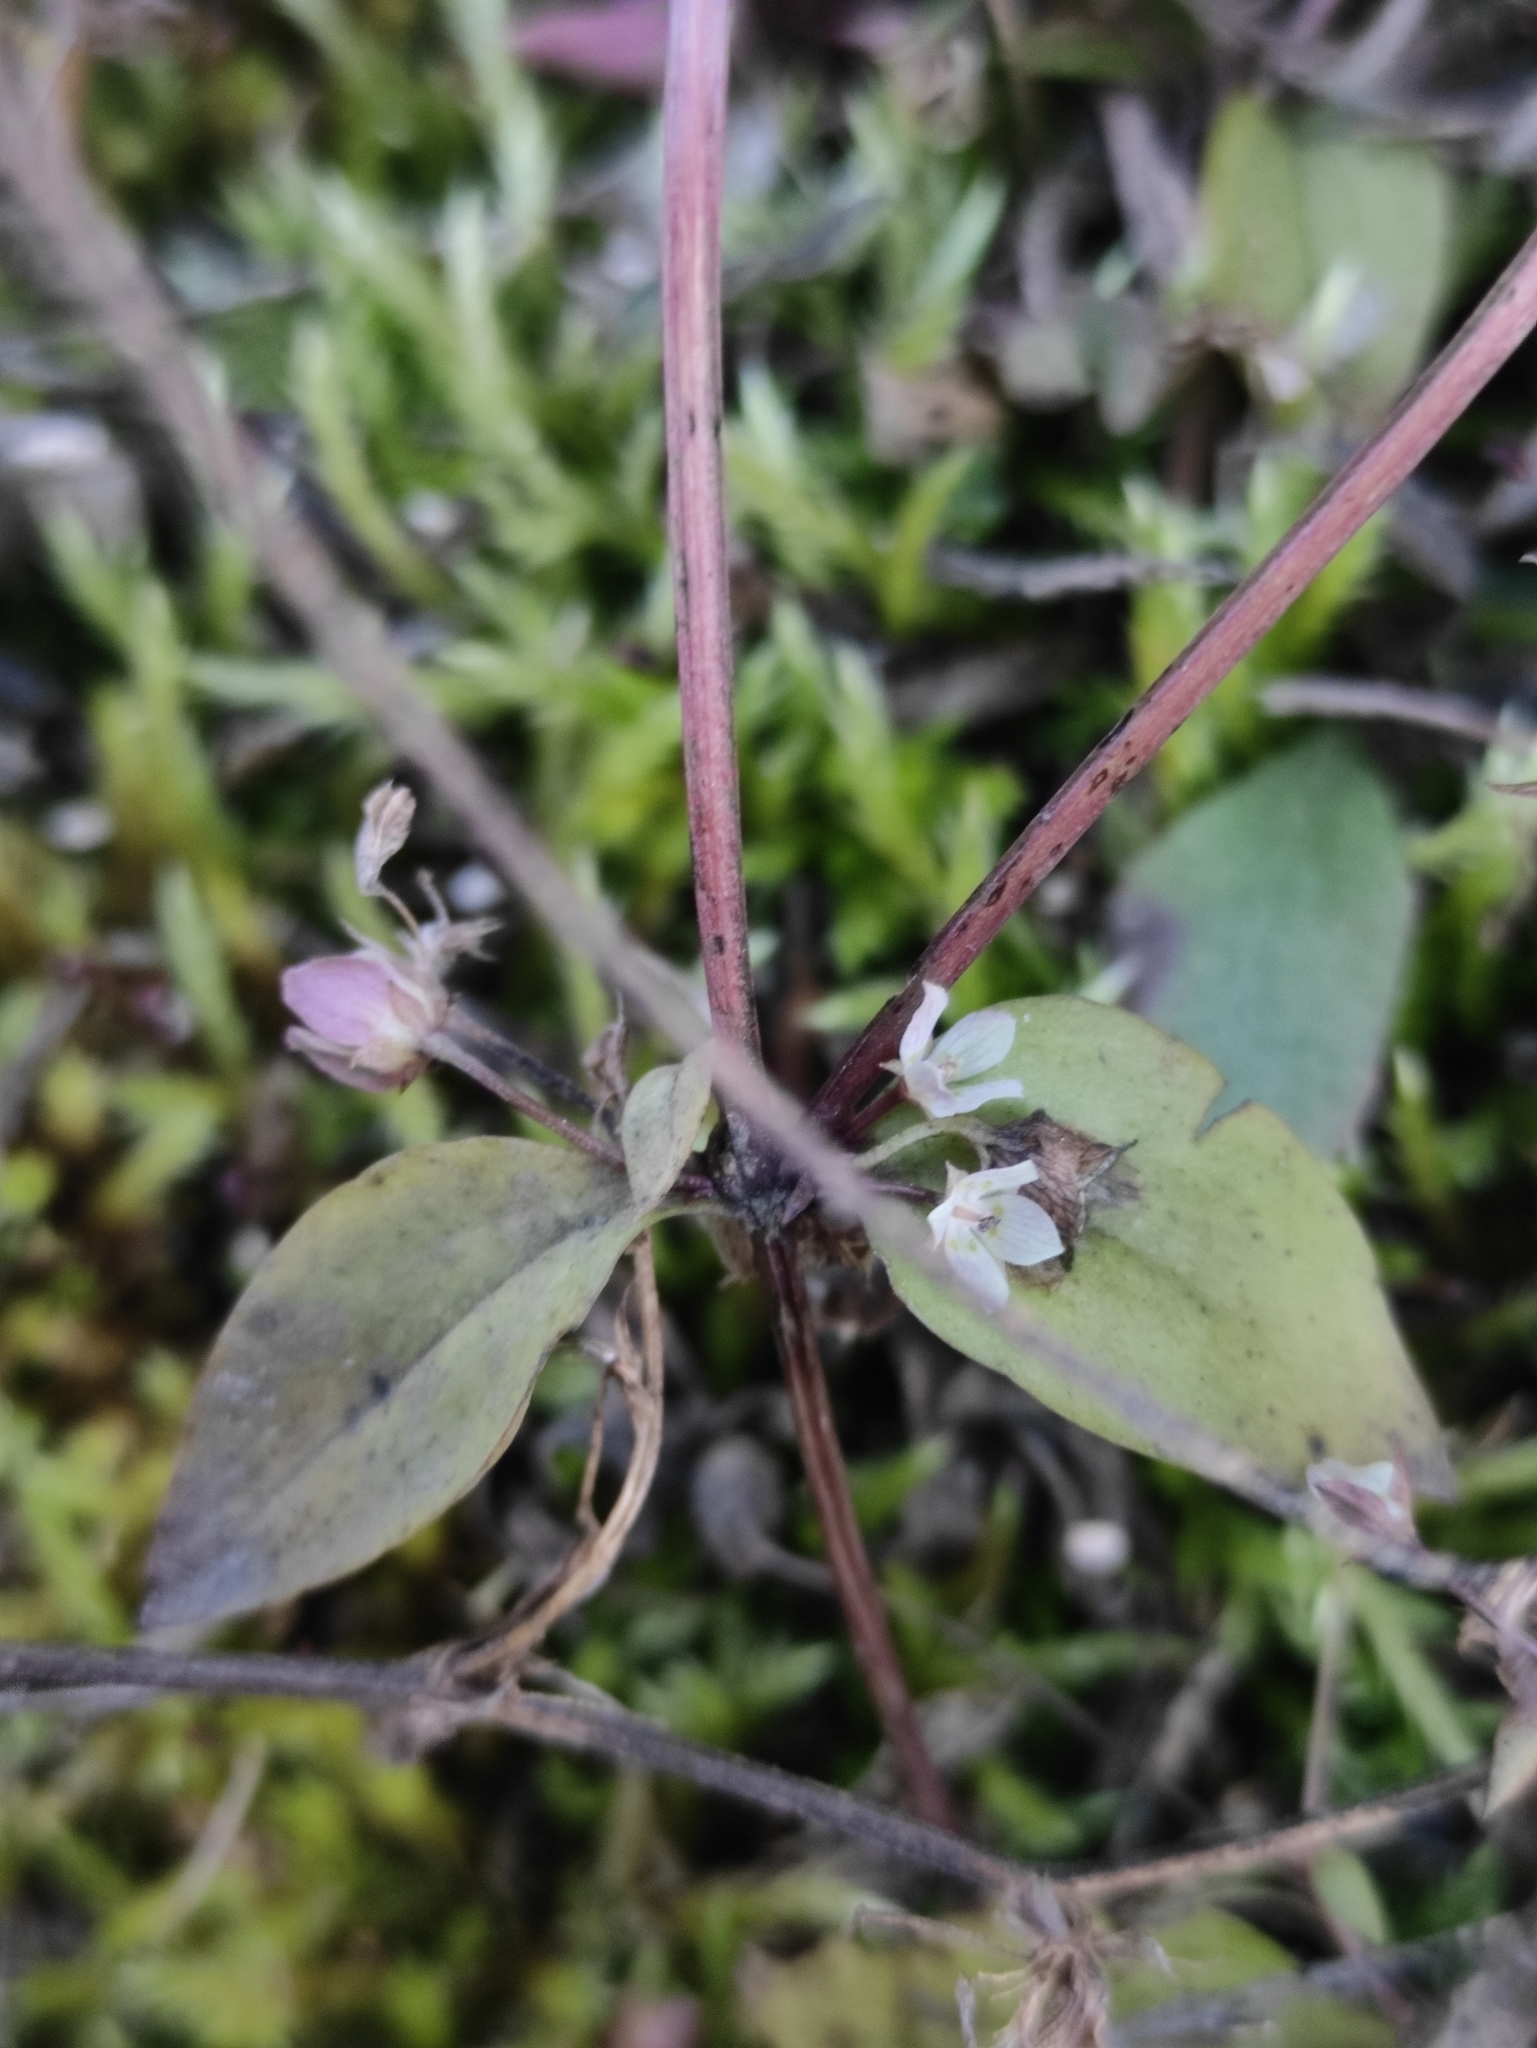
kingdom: Plantae
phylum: Tracheophyta
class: Magnoliopsida
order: Gentianales
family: Gentianaceae
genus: Swertia
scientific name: Swertia dichotoma
